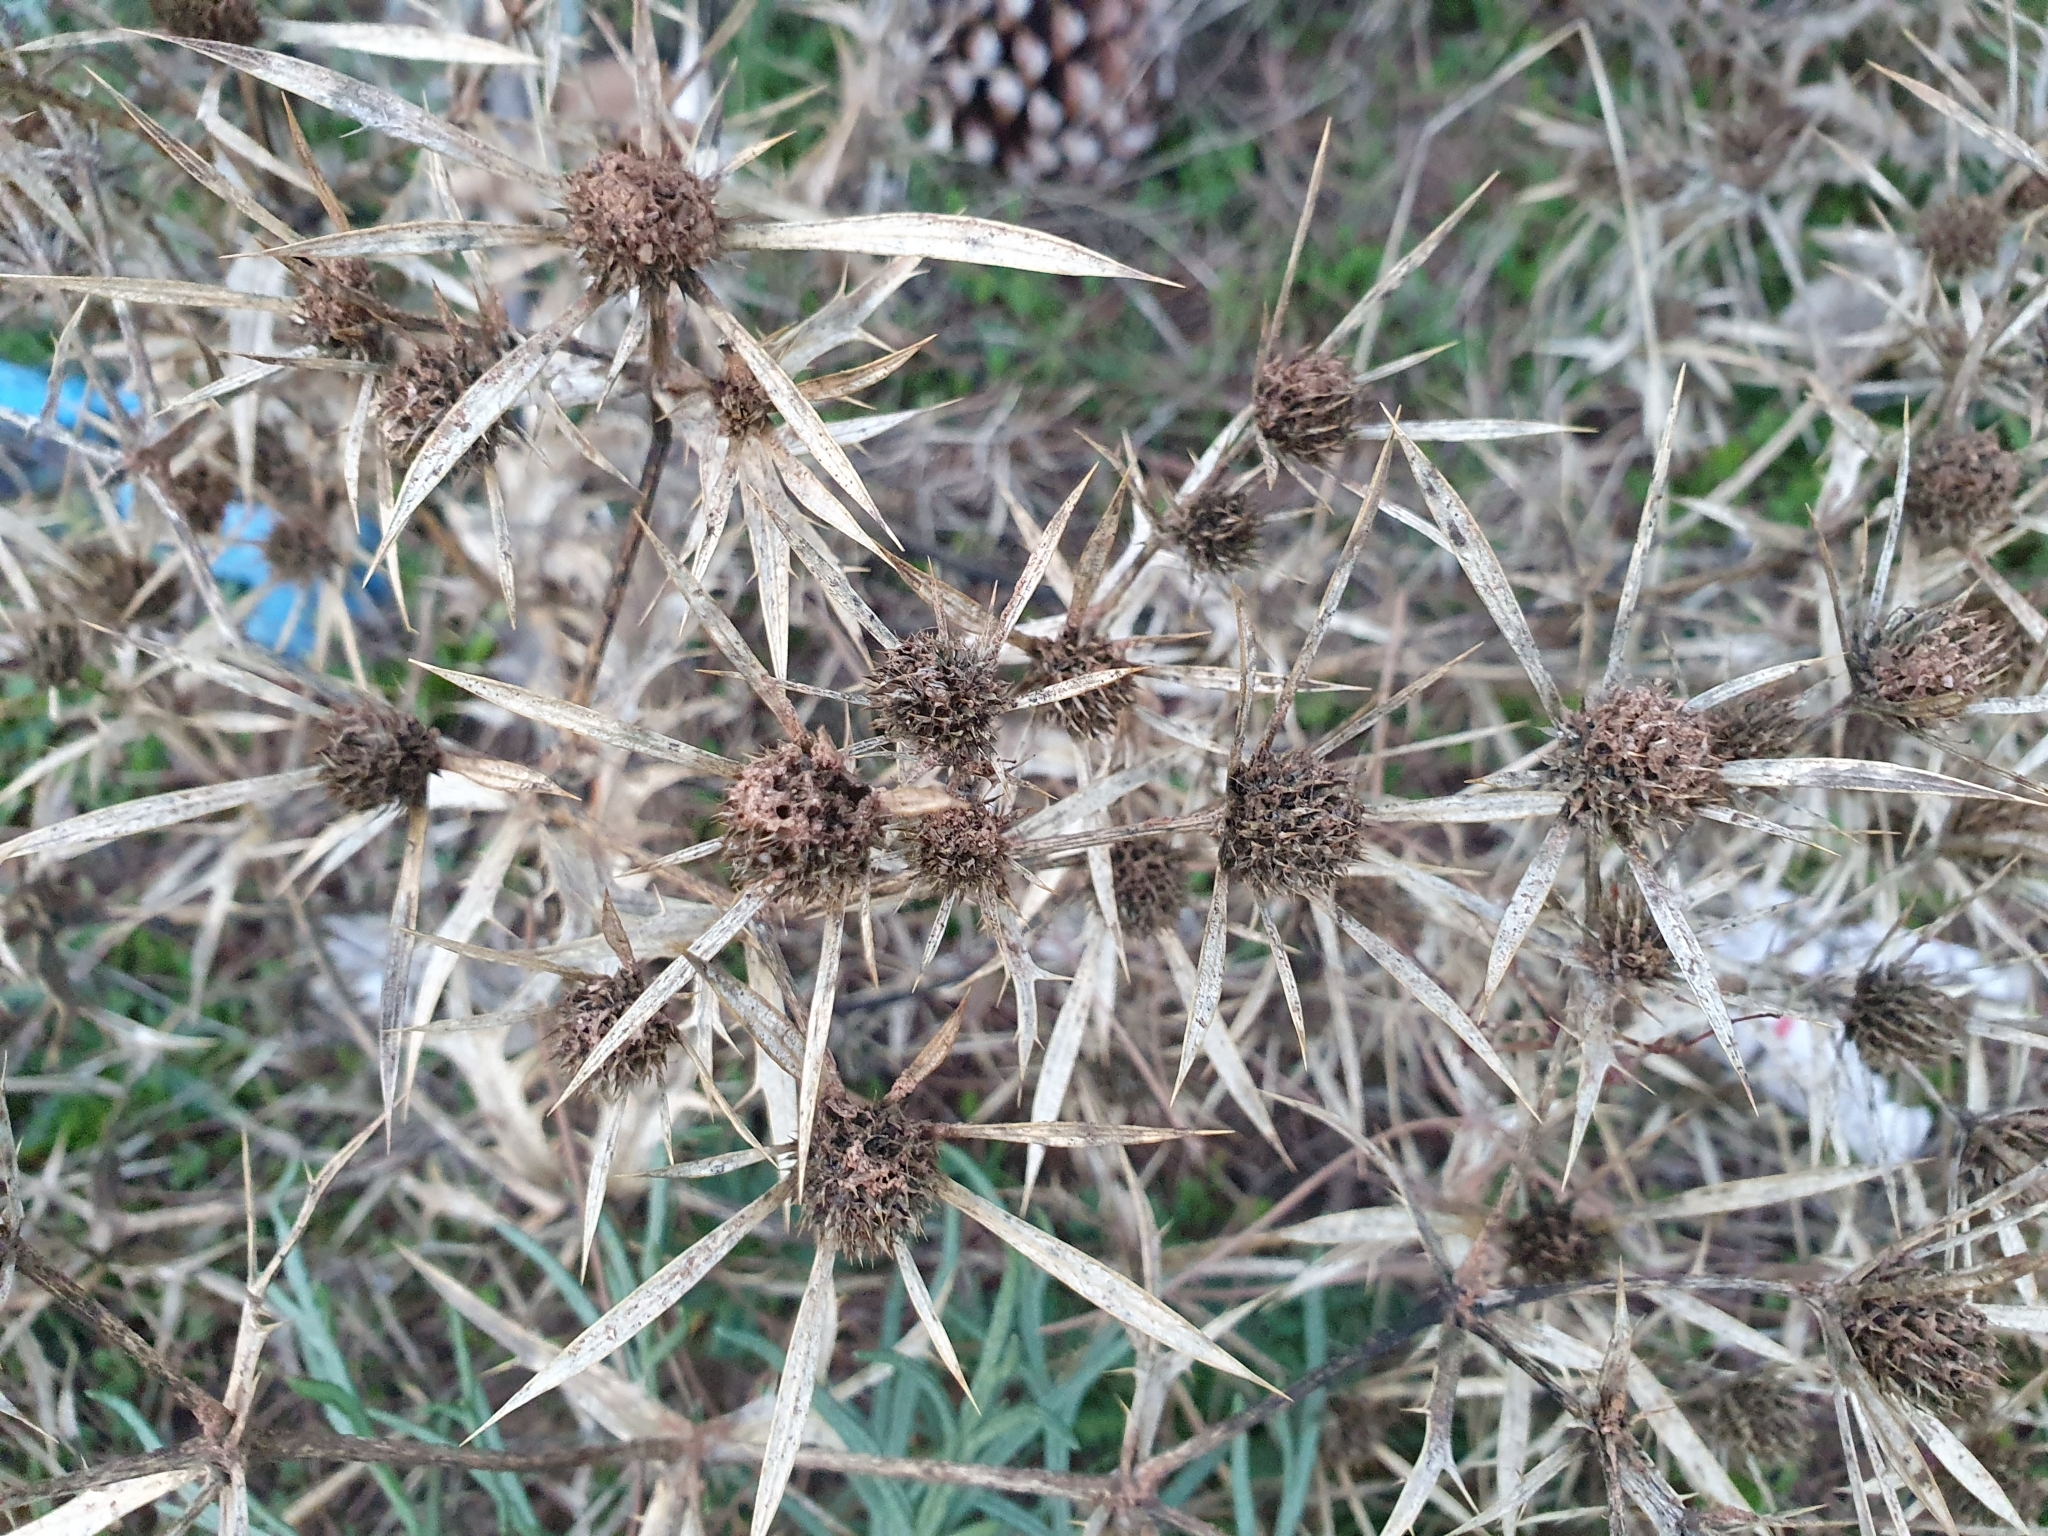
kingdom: Plantae
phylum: Tracheophyta
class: Magnoliopsida
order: Apiales
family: Apiaceae
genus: Eryngium
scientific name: Eryngium campestre
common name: Field eryngo
